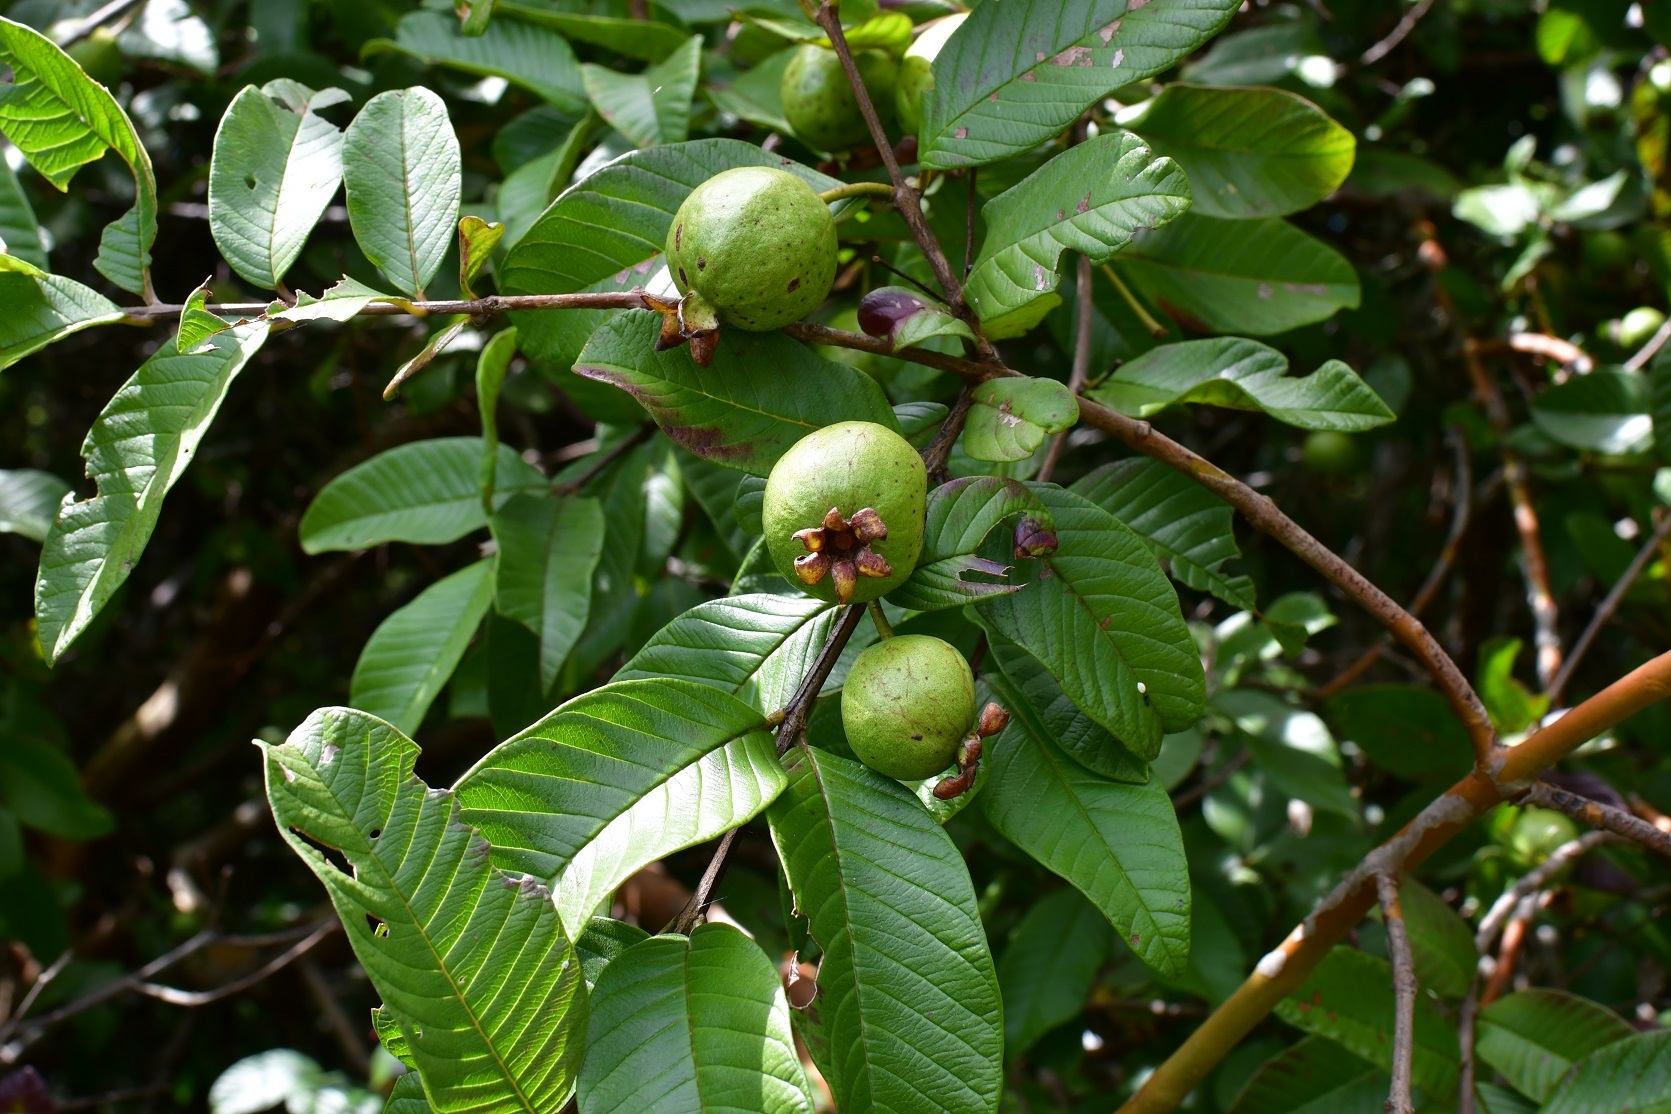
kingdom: Plantae
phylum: Tracheophyta
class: Magnoliopsida
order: Myrtales
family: Myrtaceae
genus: Psidium
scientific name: Psidium guajava
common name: Guava
